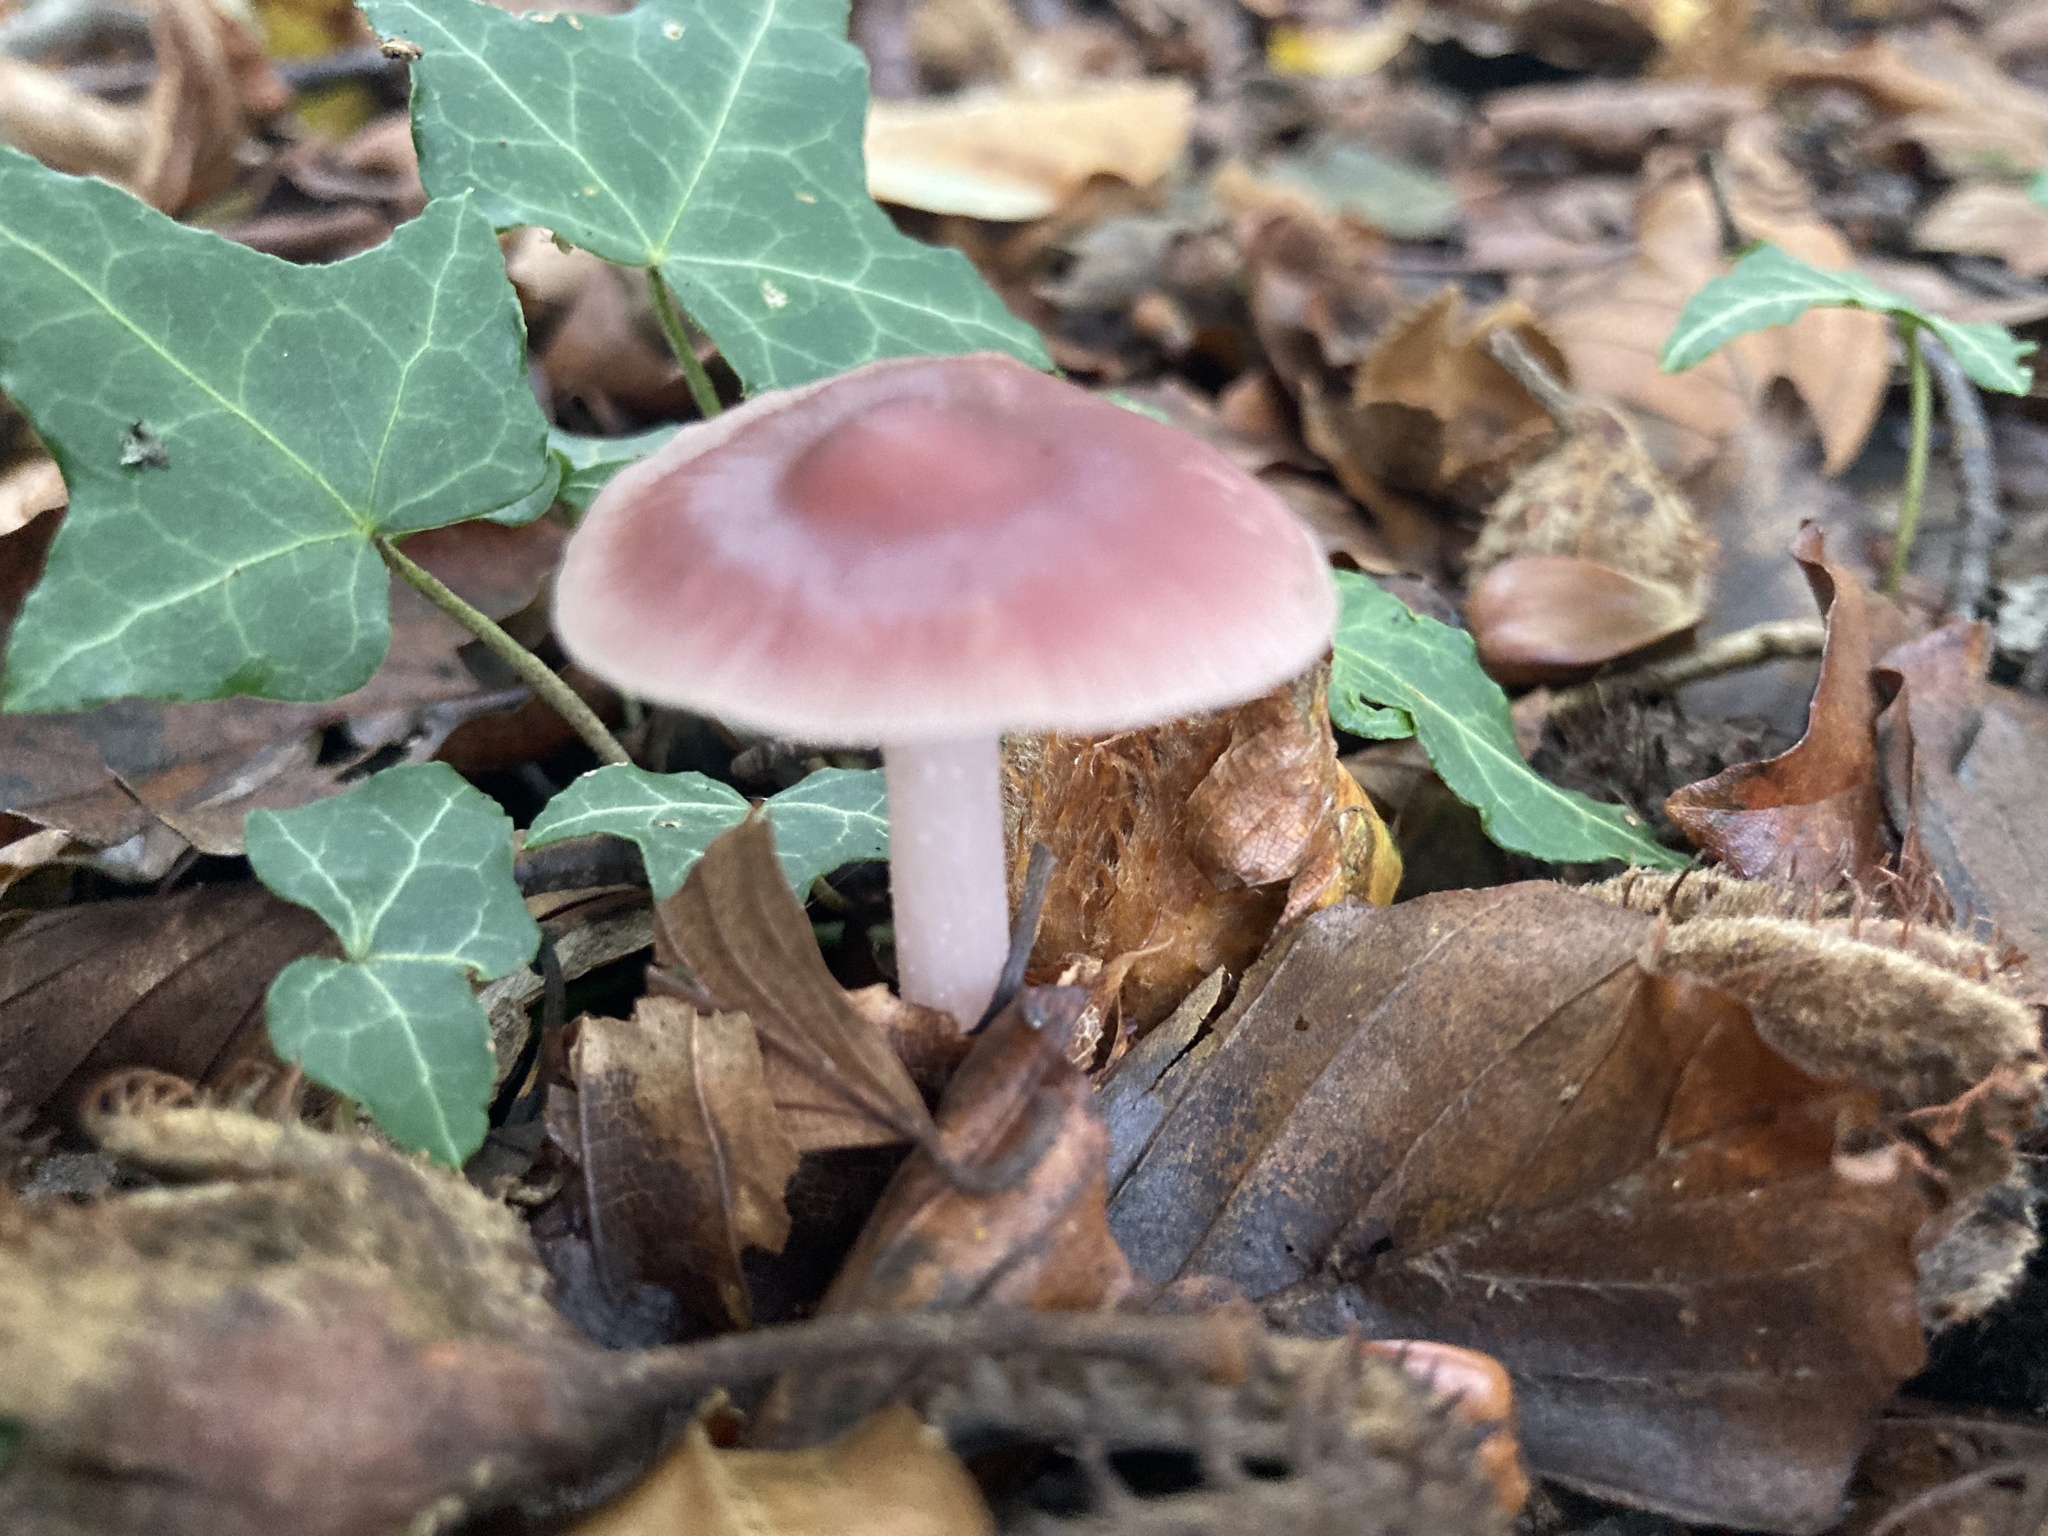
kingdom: Fungi
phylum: Basidiomycota
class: Agaricomycetes
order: Agaricales
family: Mycenaceae
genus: Mycena
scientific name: Mycena rosea
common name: Rosy bonnet
